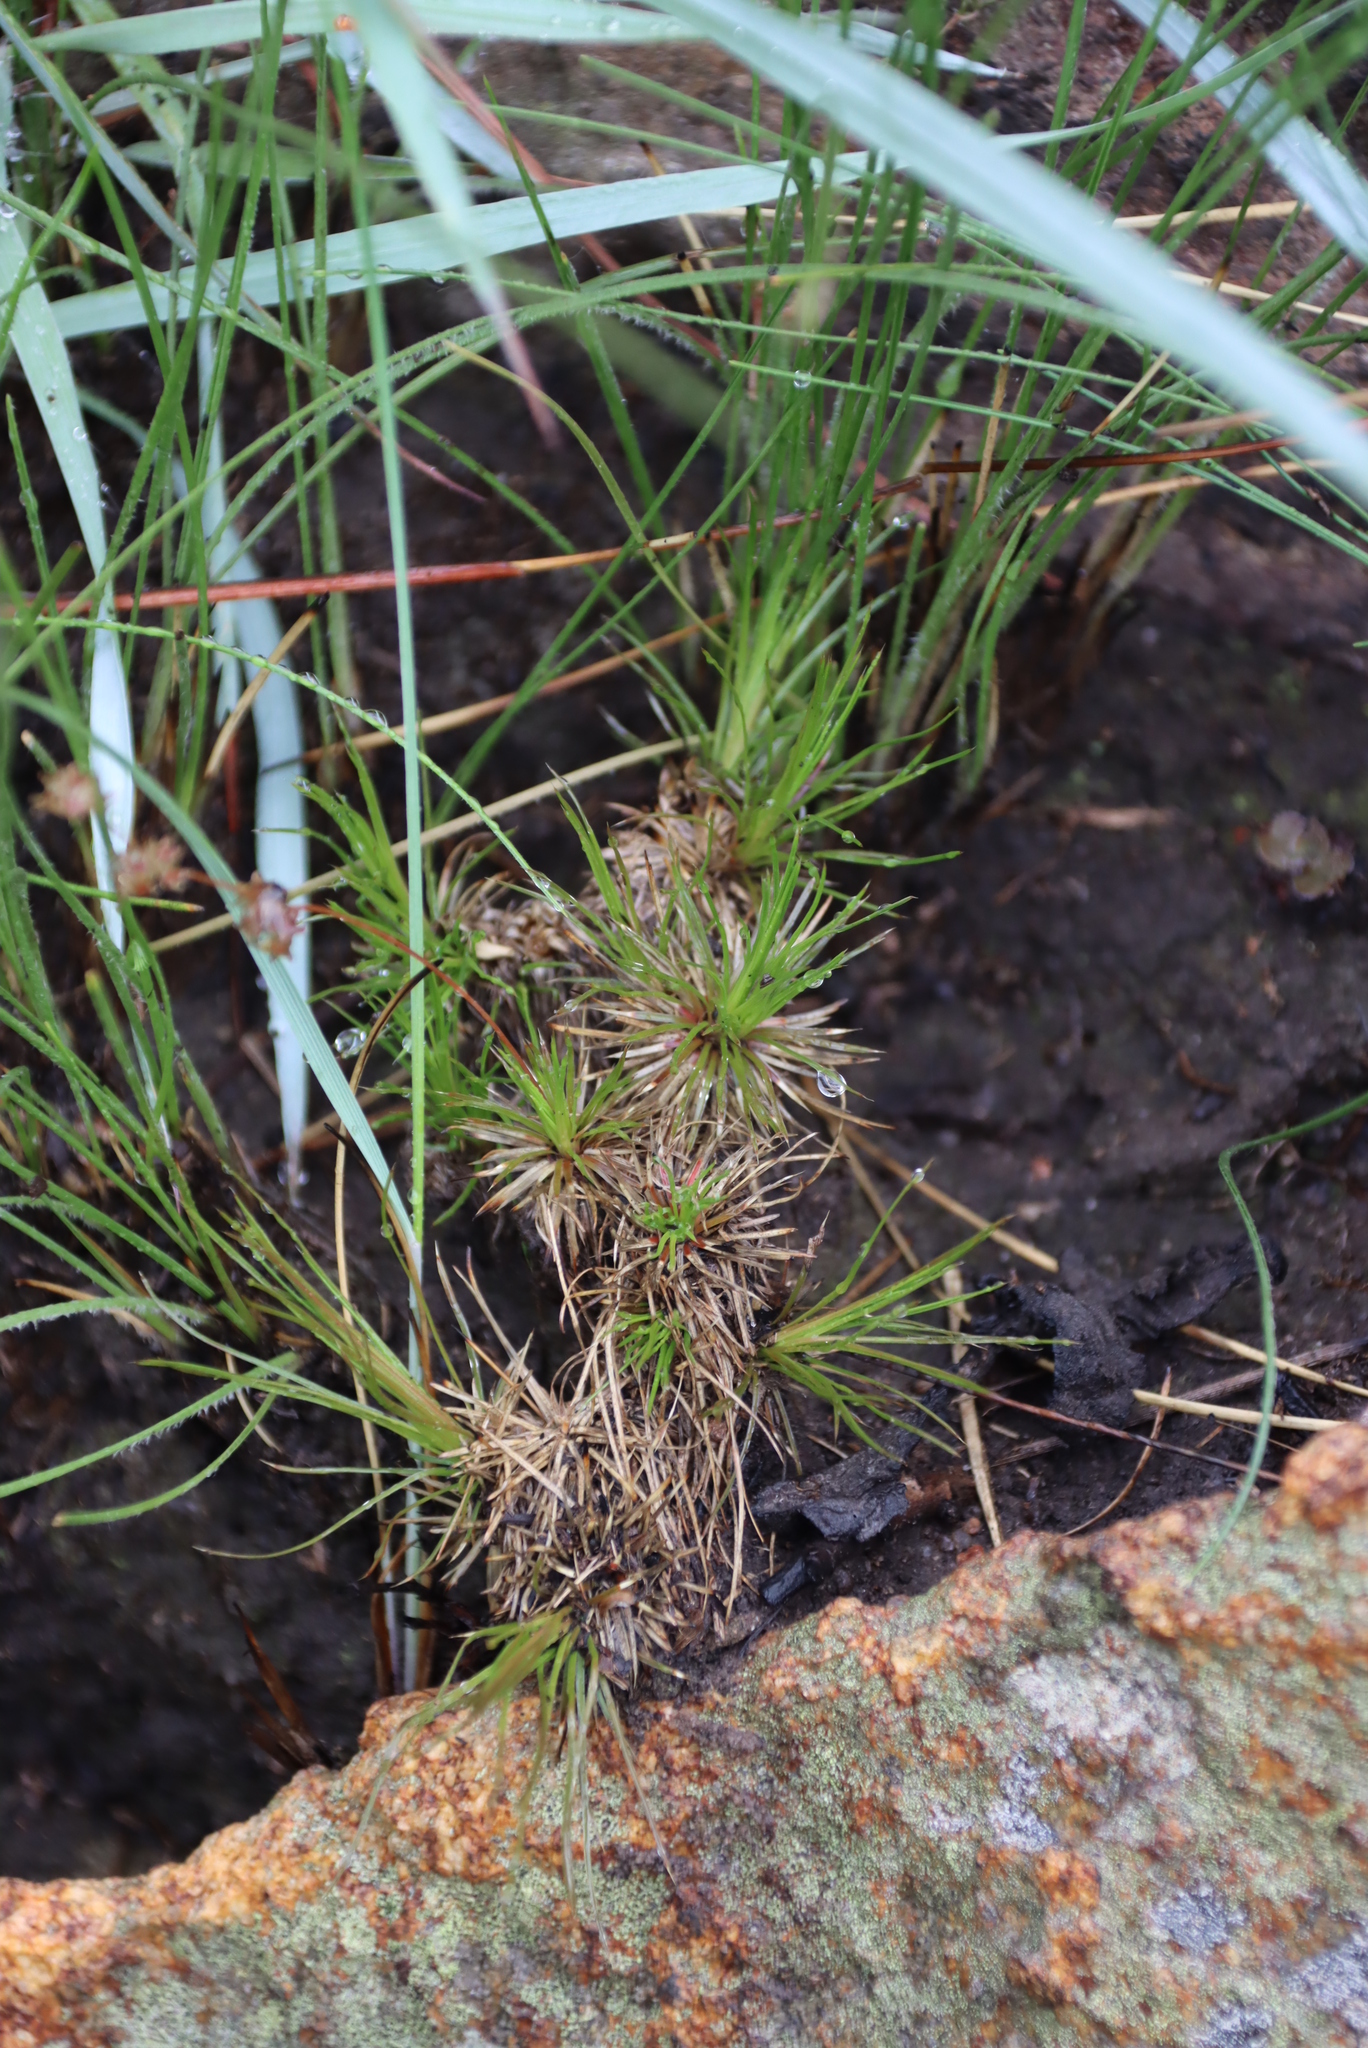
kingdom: Plantae
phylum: Tracheophyta
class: Magnoliopsida
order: Caryophyllales
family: Molluginaceae
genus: Psammotropha
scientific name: Psammotropha myriantha
